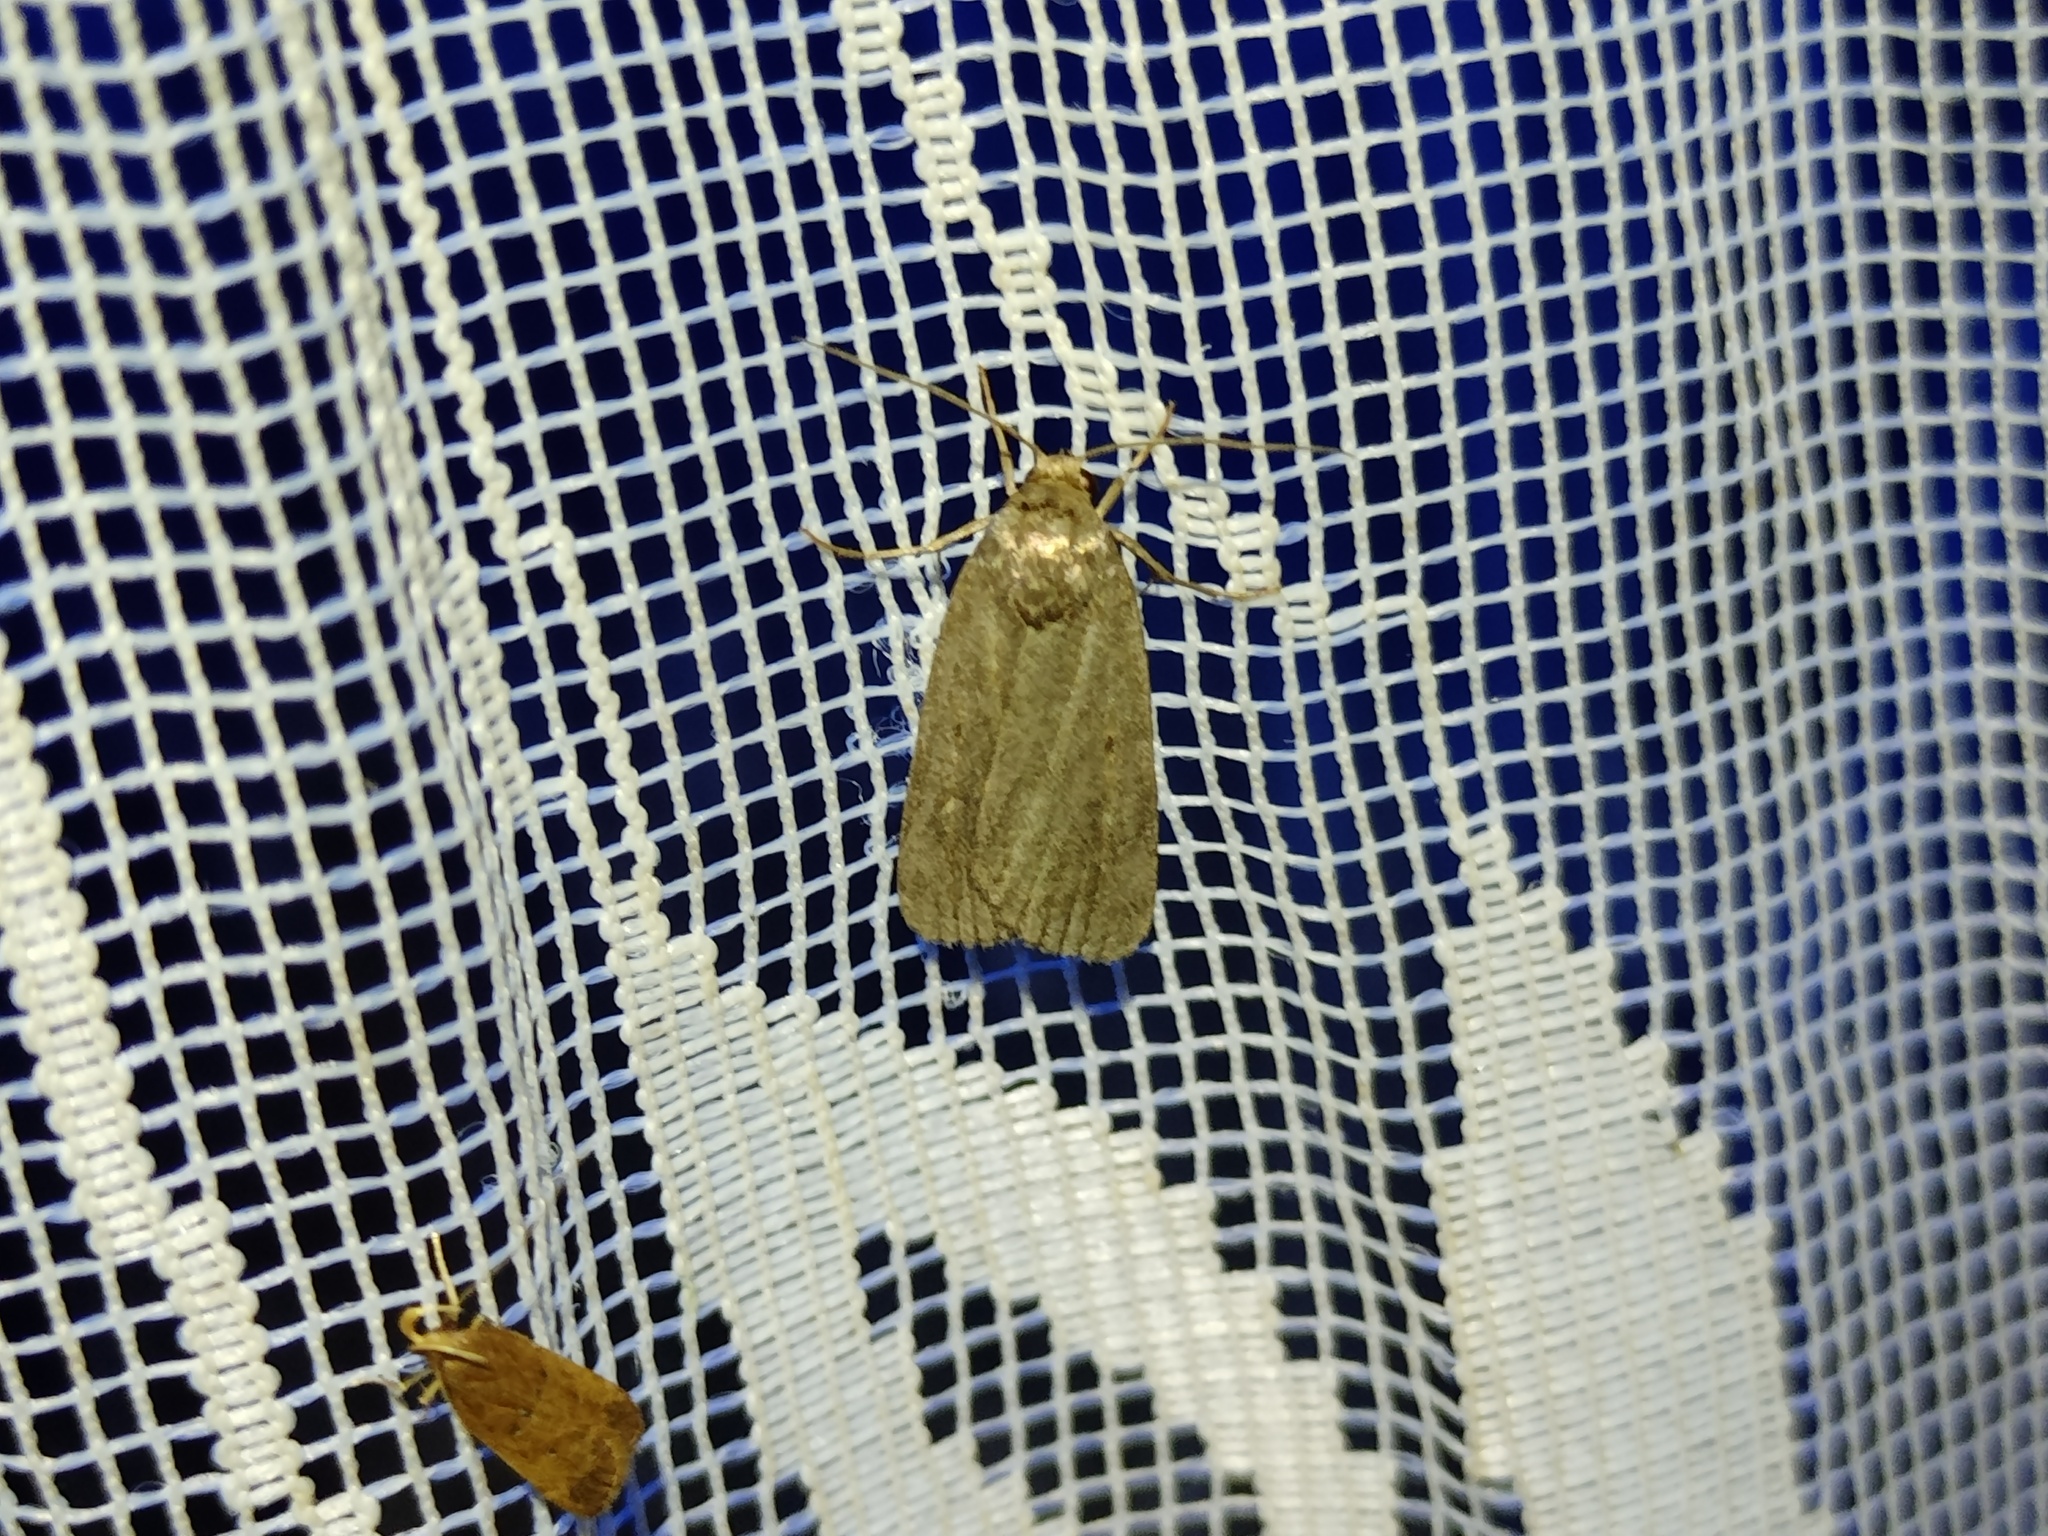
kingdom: Animalia
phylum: Arthropoda
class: Insecta
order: Lepidoptera
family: Noctuidae
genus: Athetis
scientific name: Athetis lepigone
